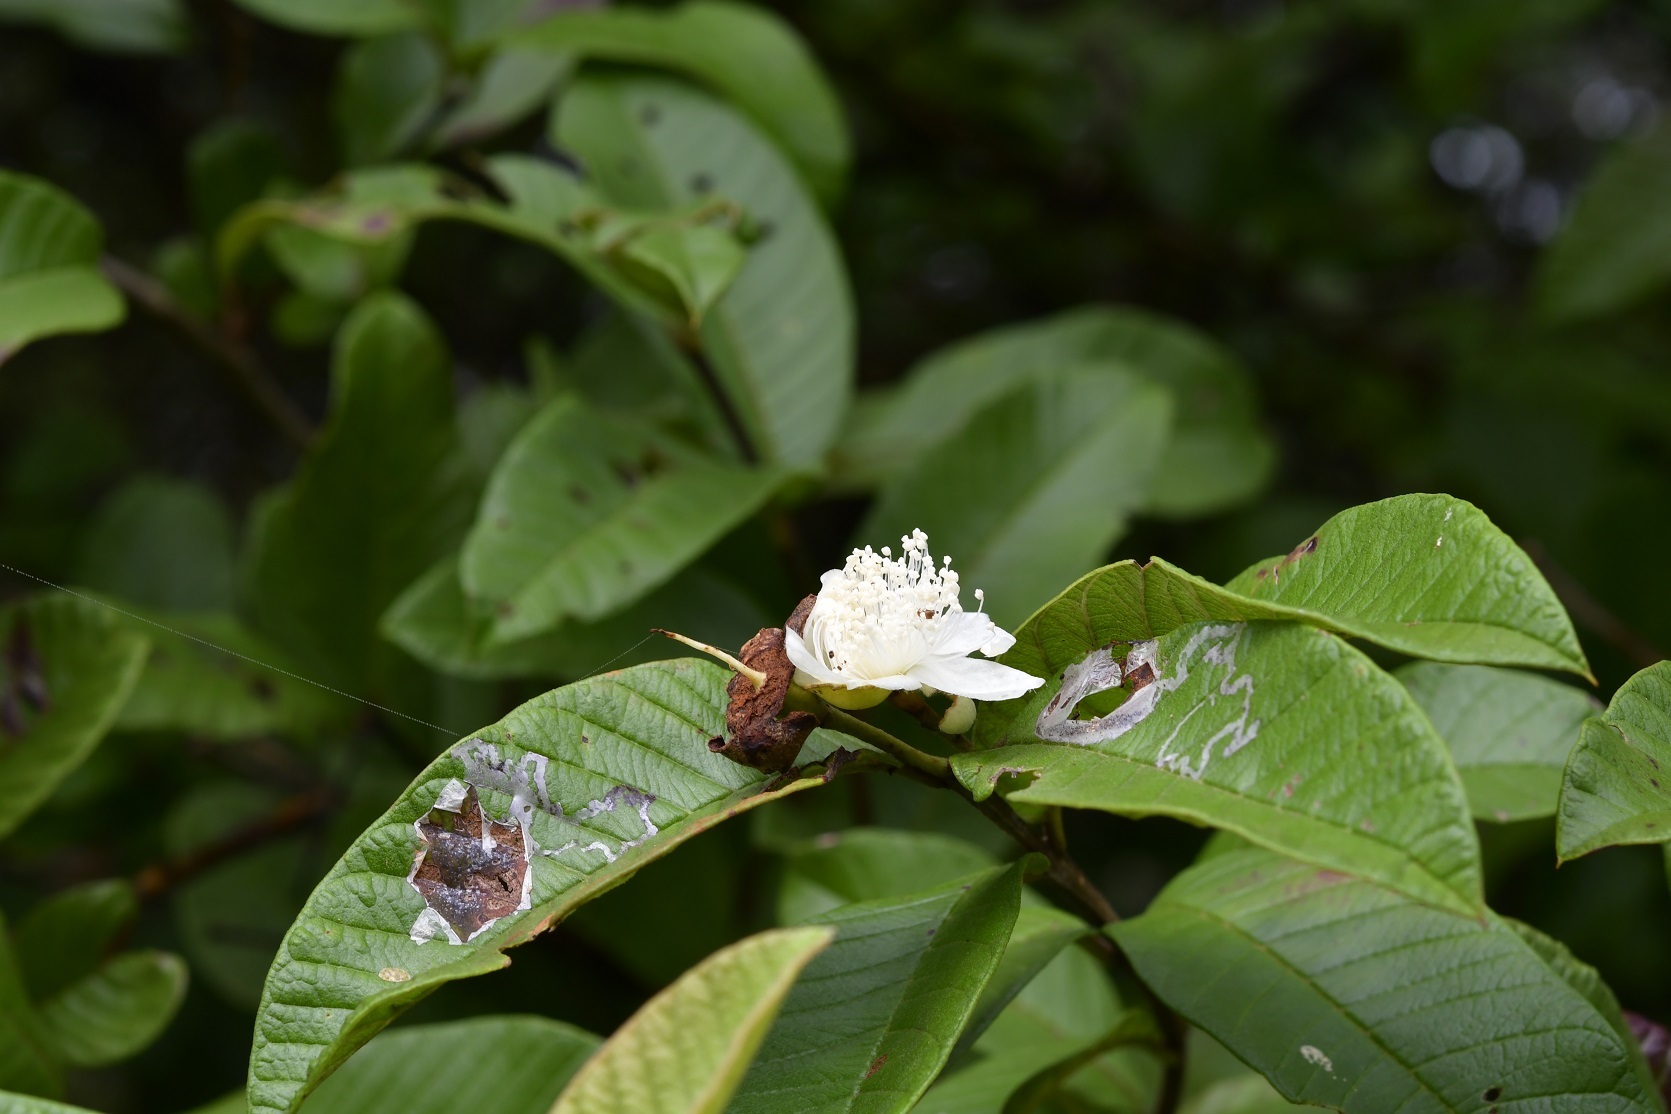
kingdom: Plantae
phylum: Tracheophyta
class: Magnoliopsida
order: Myrtales
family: Myrtaceae
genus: Psidium
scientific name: Psidium guajava
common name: Guava
